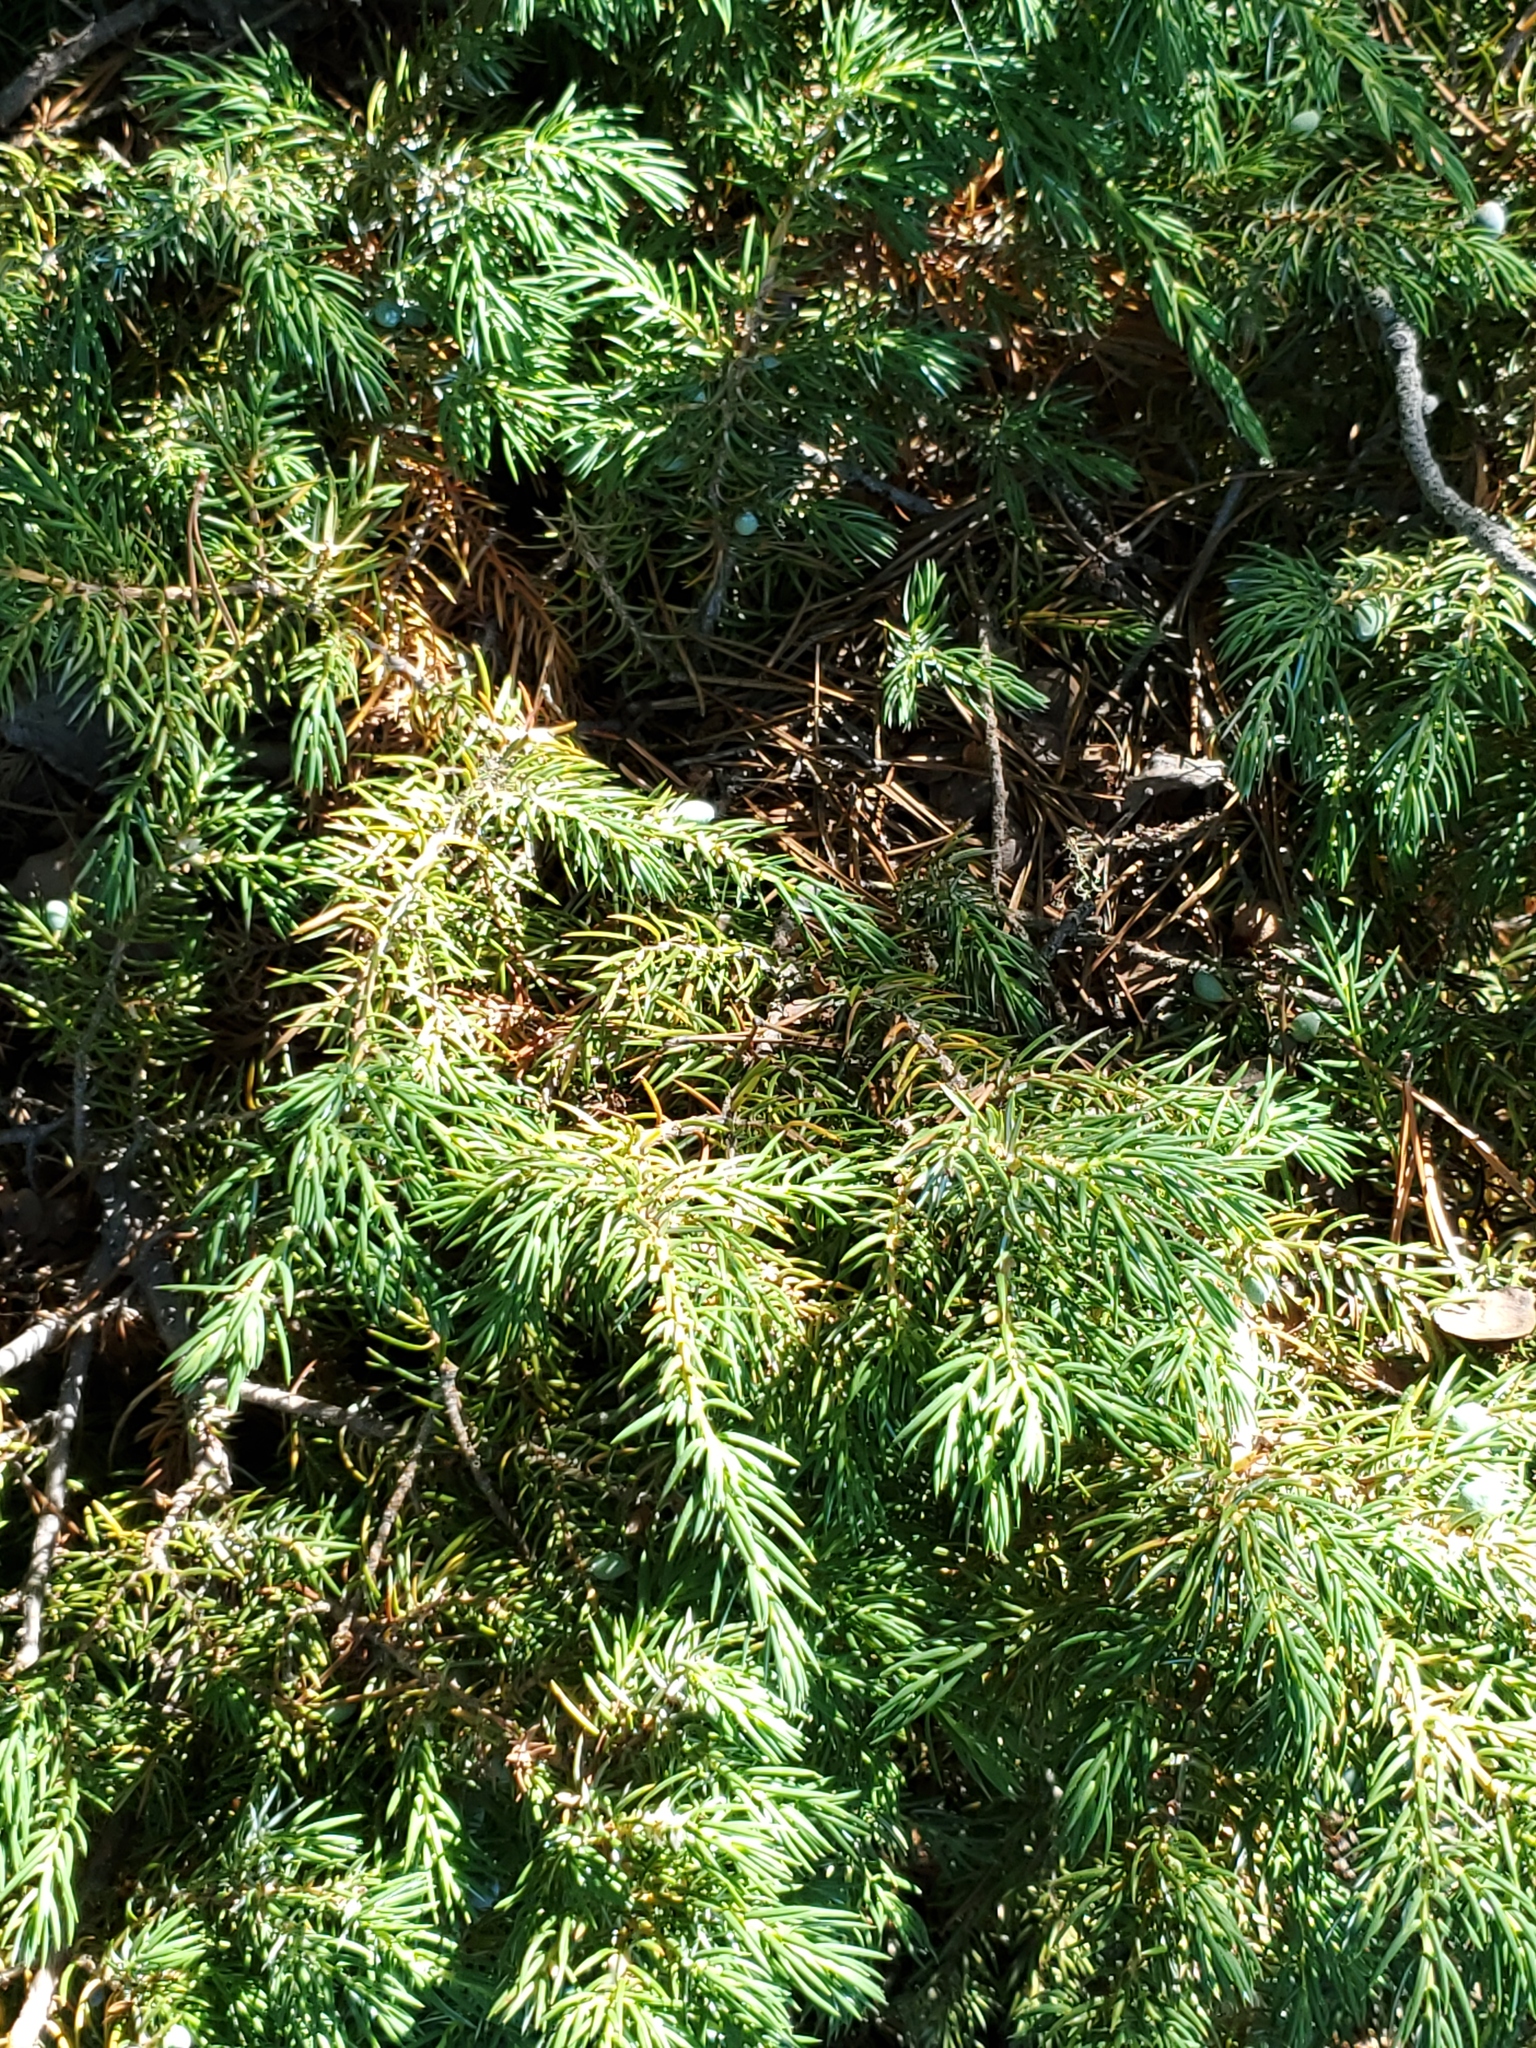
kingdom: Plantae
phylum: Tracheophyta
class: Pinopsida
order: Pinales
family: Cupressaceae
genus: Juniperus
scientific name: Juniperus communis
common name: Common juniper
